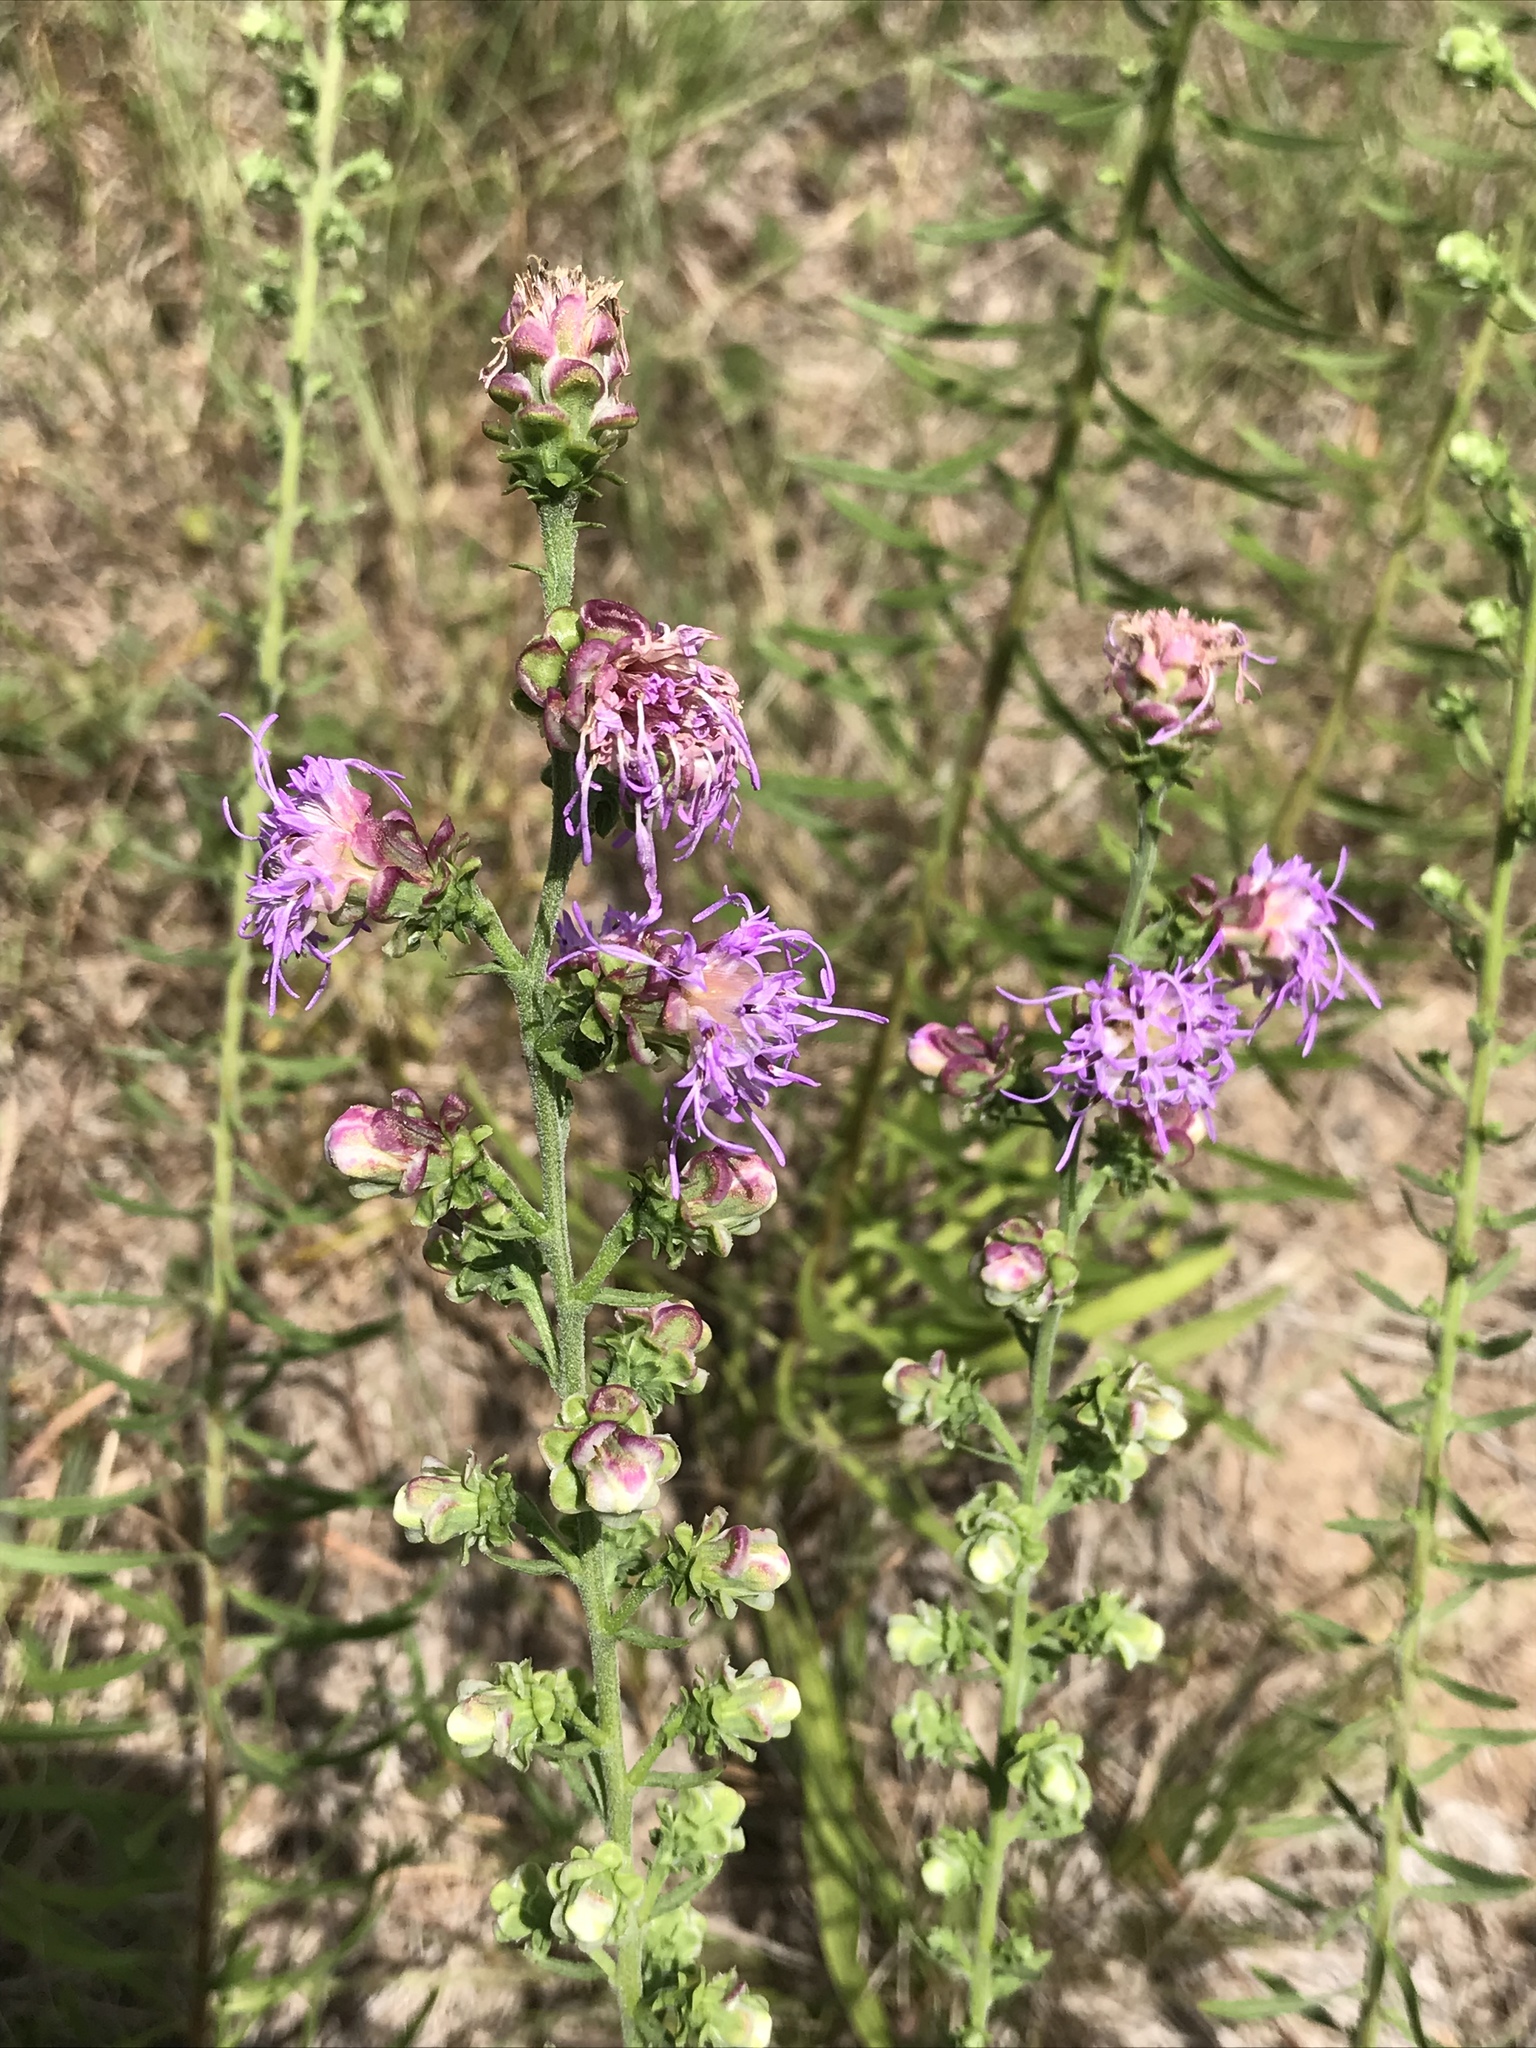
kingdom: Plantae
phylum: Tracheophyta
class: Magnoliopsida
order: Asterales
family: Asteraceae
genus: Liatris
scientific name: Liatris aspera
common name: Lacerate blazing-star
